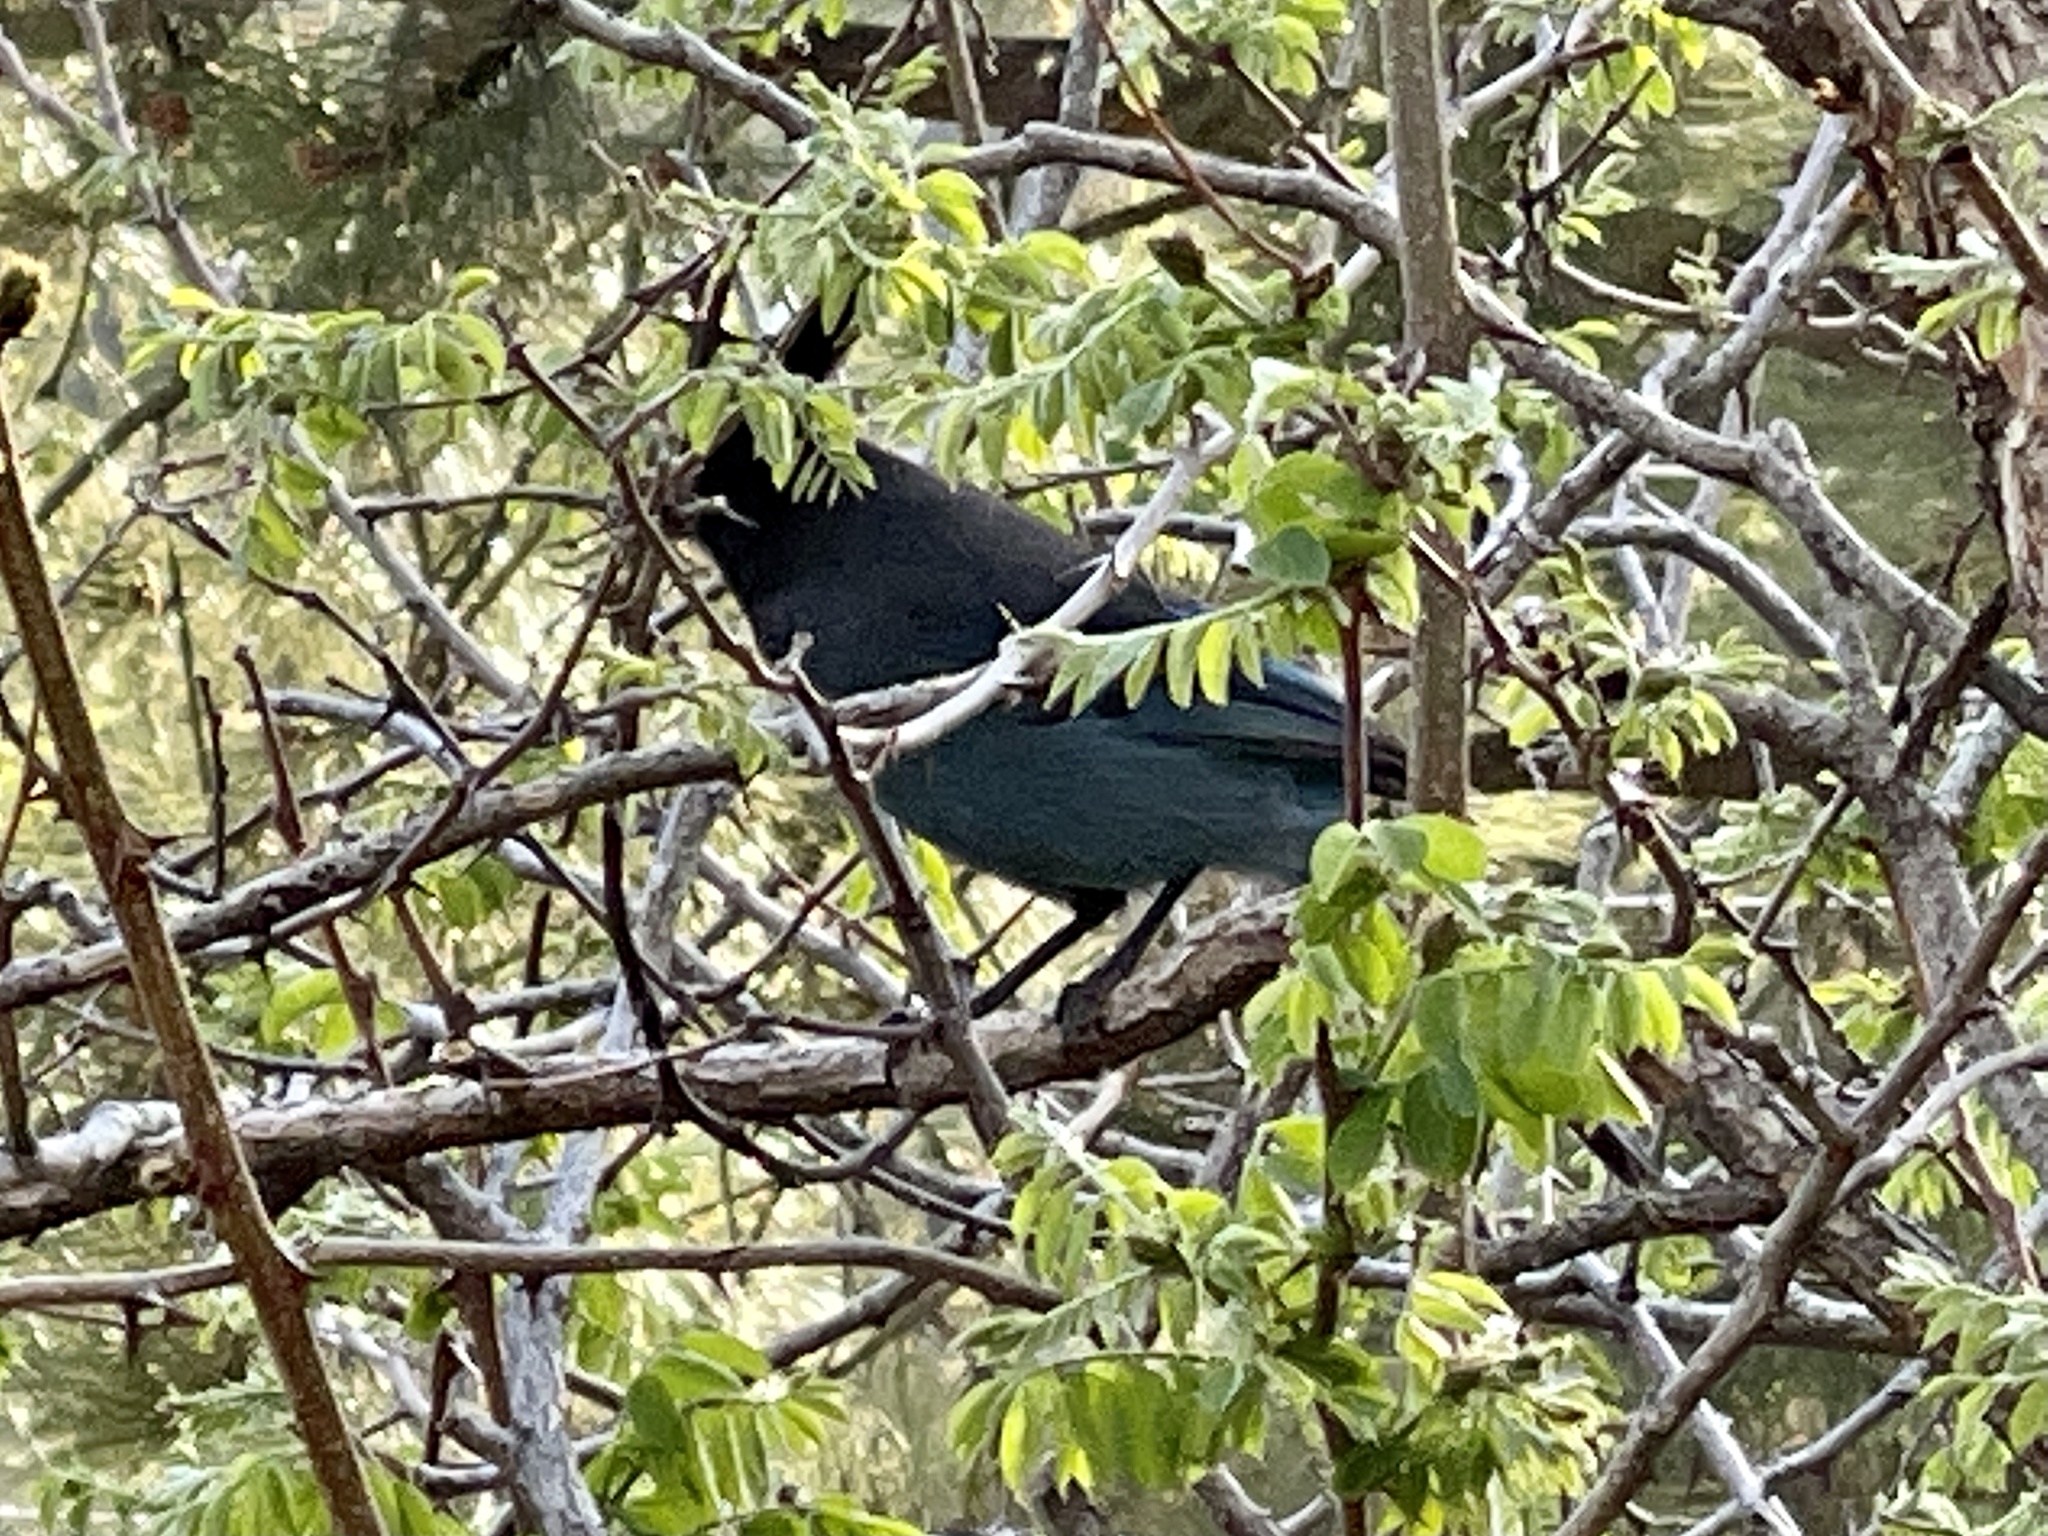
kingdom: Animalia
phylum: Chordata
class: Aves
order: Passeriformes
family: Corvidae
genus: Cyanocitta
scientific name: Cyanocitta stelleri
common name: Steller's jay
